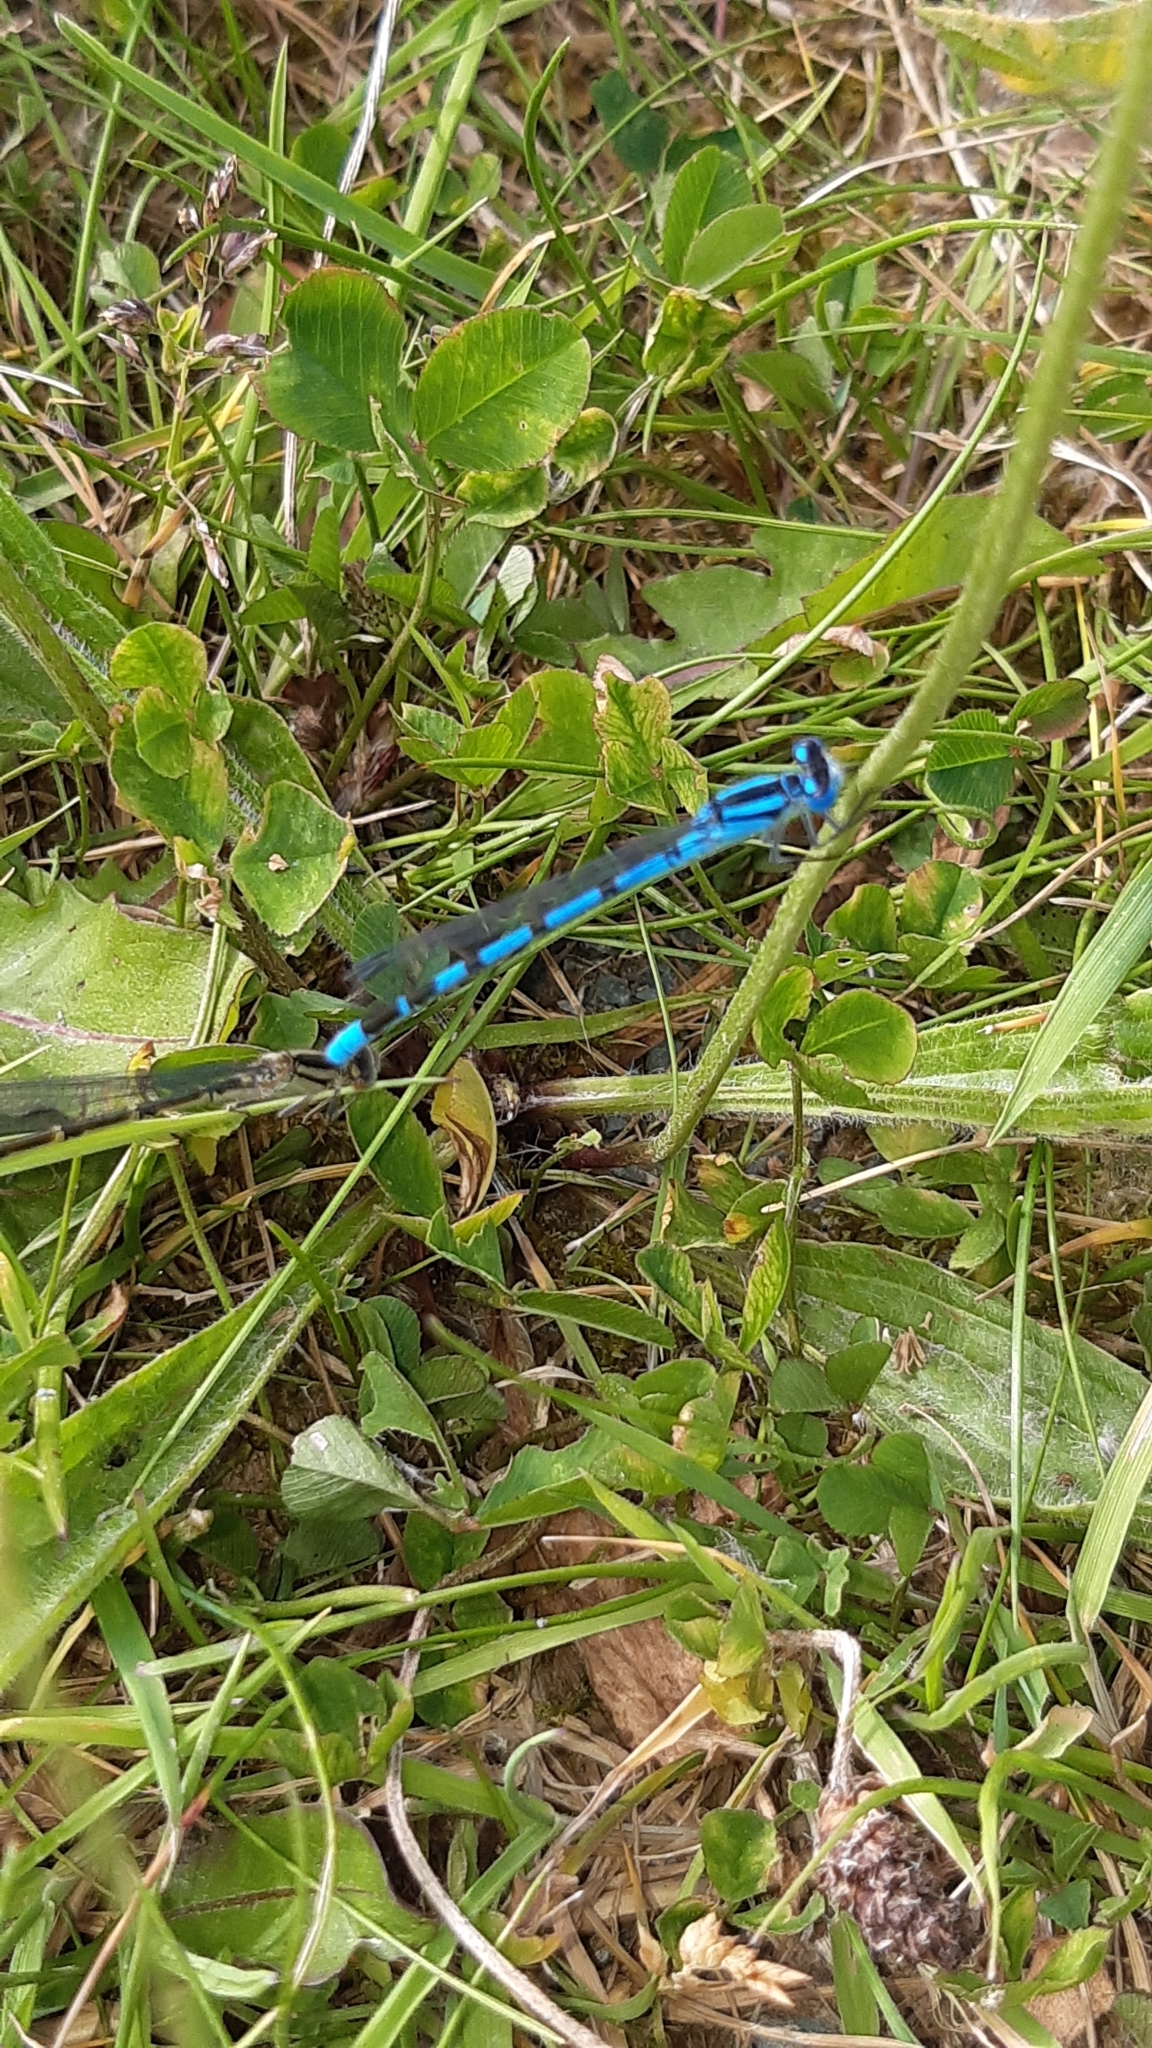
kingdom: Animalia
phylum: Arthropoda
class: Insecta
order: Odonata
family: Coenagrionidae
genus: Enallagma
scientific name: Enallagma cyathigerum
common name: Common blue damselfly
